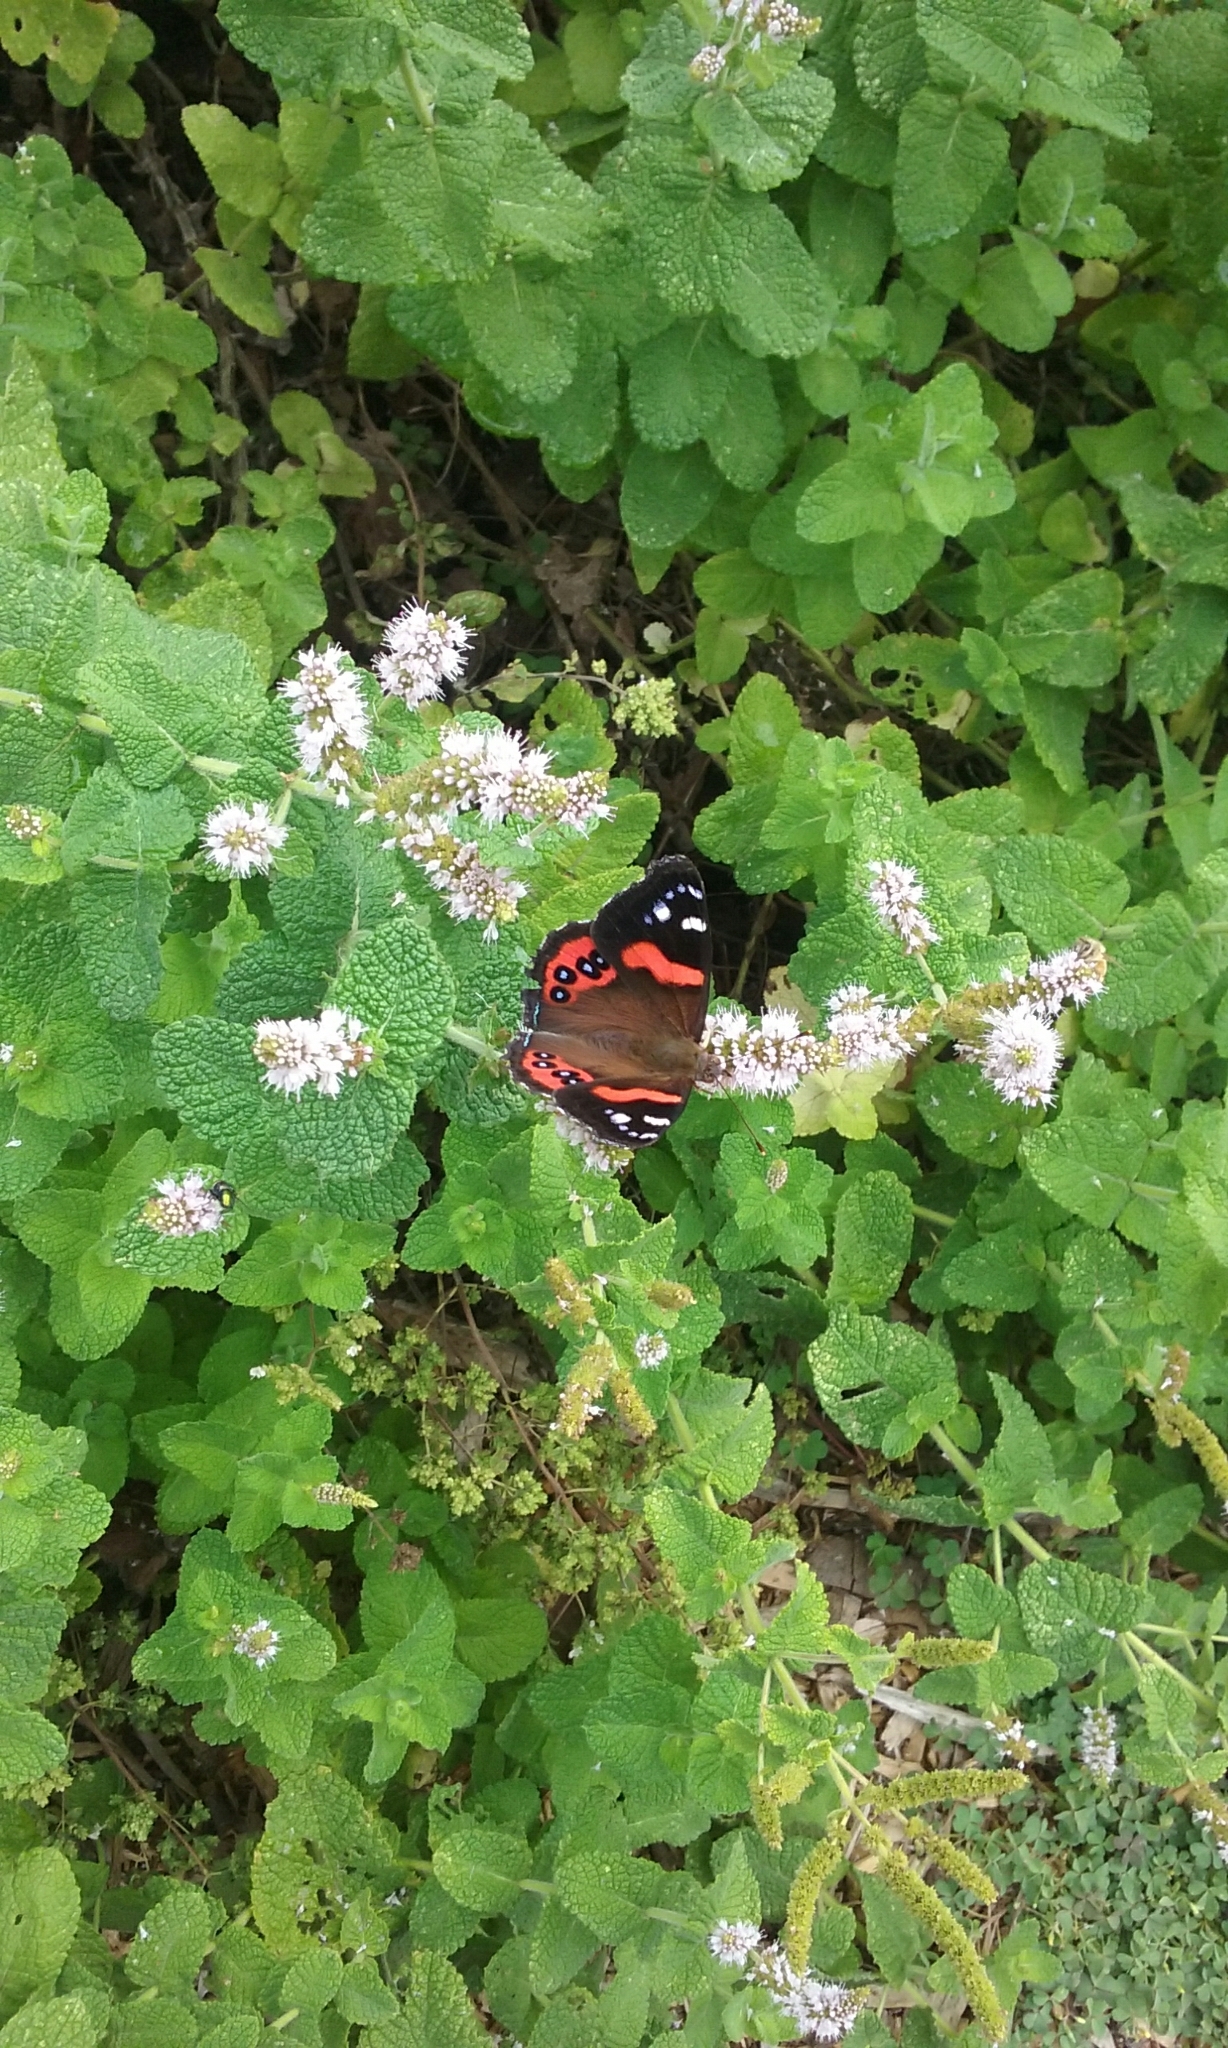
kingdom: Animalia
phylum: Arthropoda
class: Insecta
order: Lepidoptera
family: Nymphalidae
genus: Vanessa
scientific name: Vanessa gonerilla
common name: New zealand red admiral
